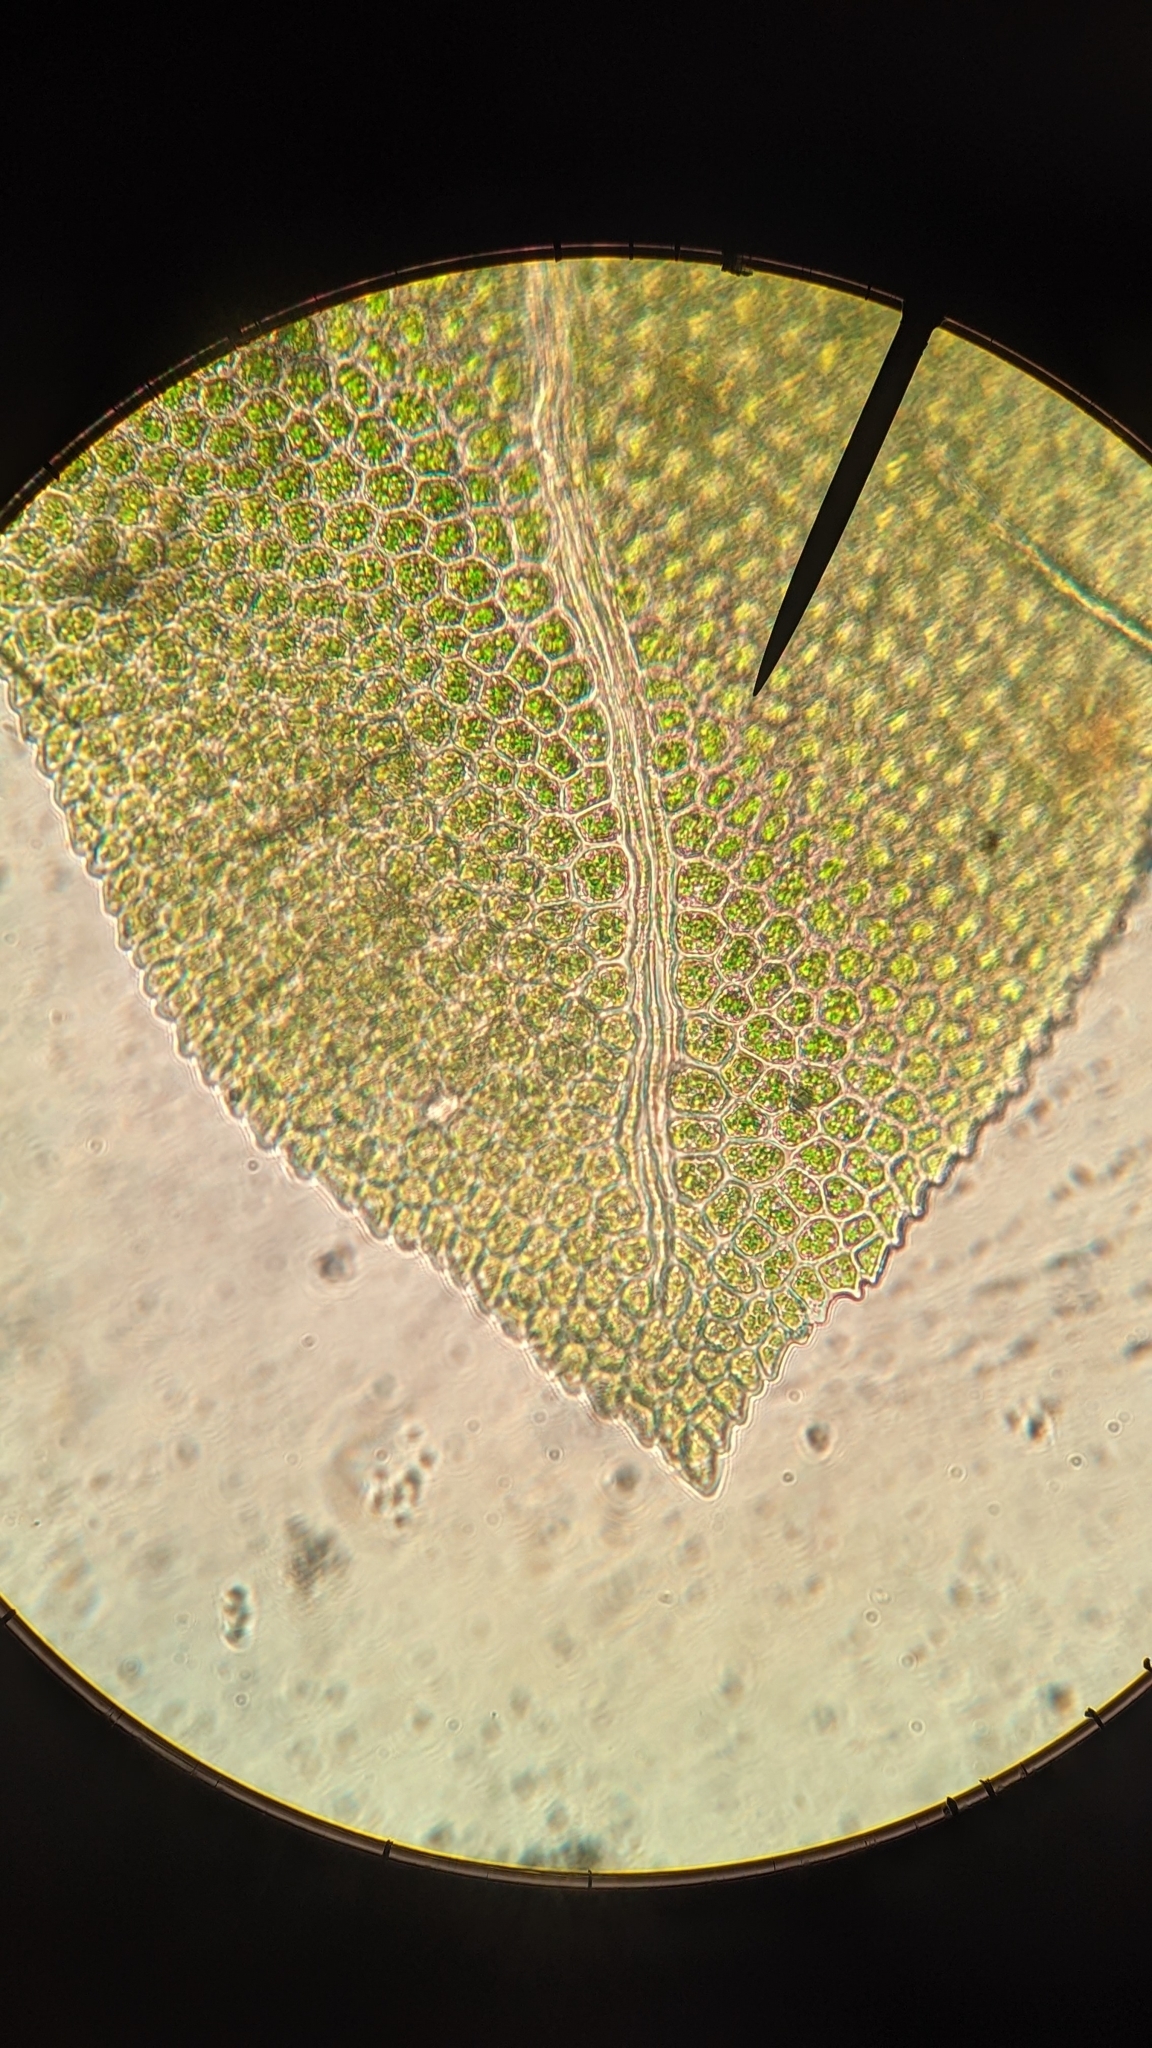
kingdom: Plantae
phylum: Bryophyta
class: Bryopsida
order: Dicranales
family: Fissidentaceae
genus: Fissidens
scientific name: Fissidens osmundioides
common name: Osmund fissidens moss
